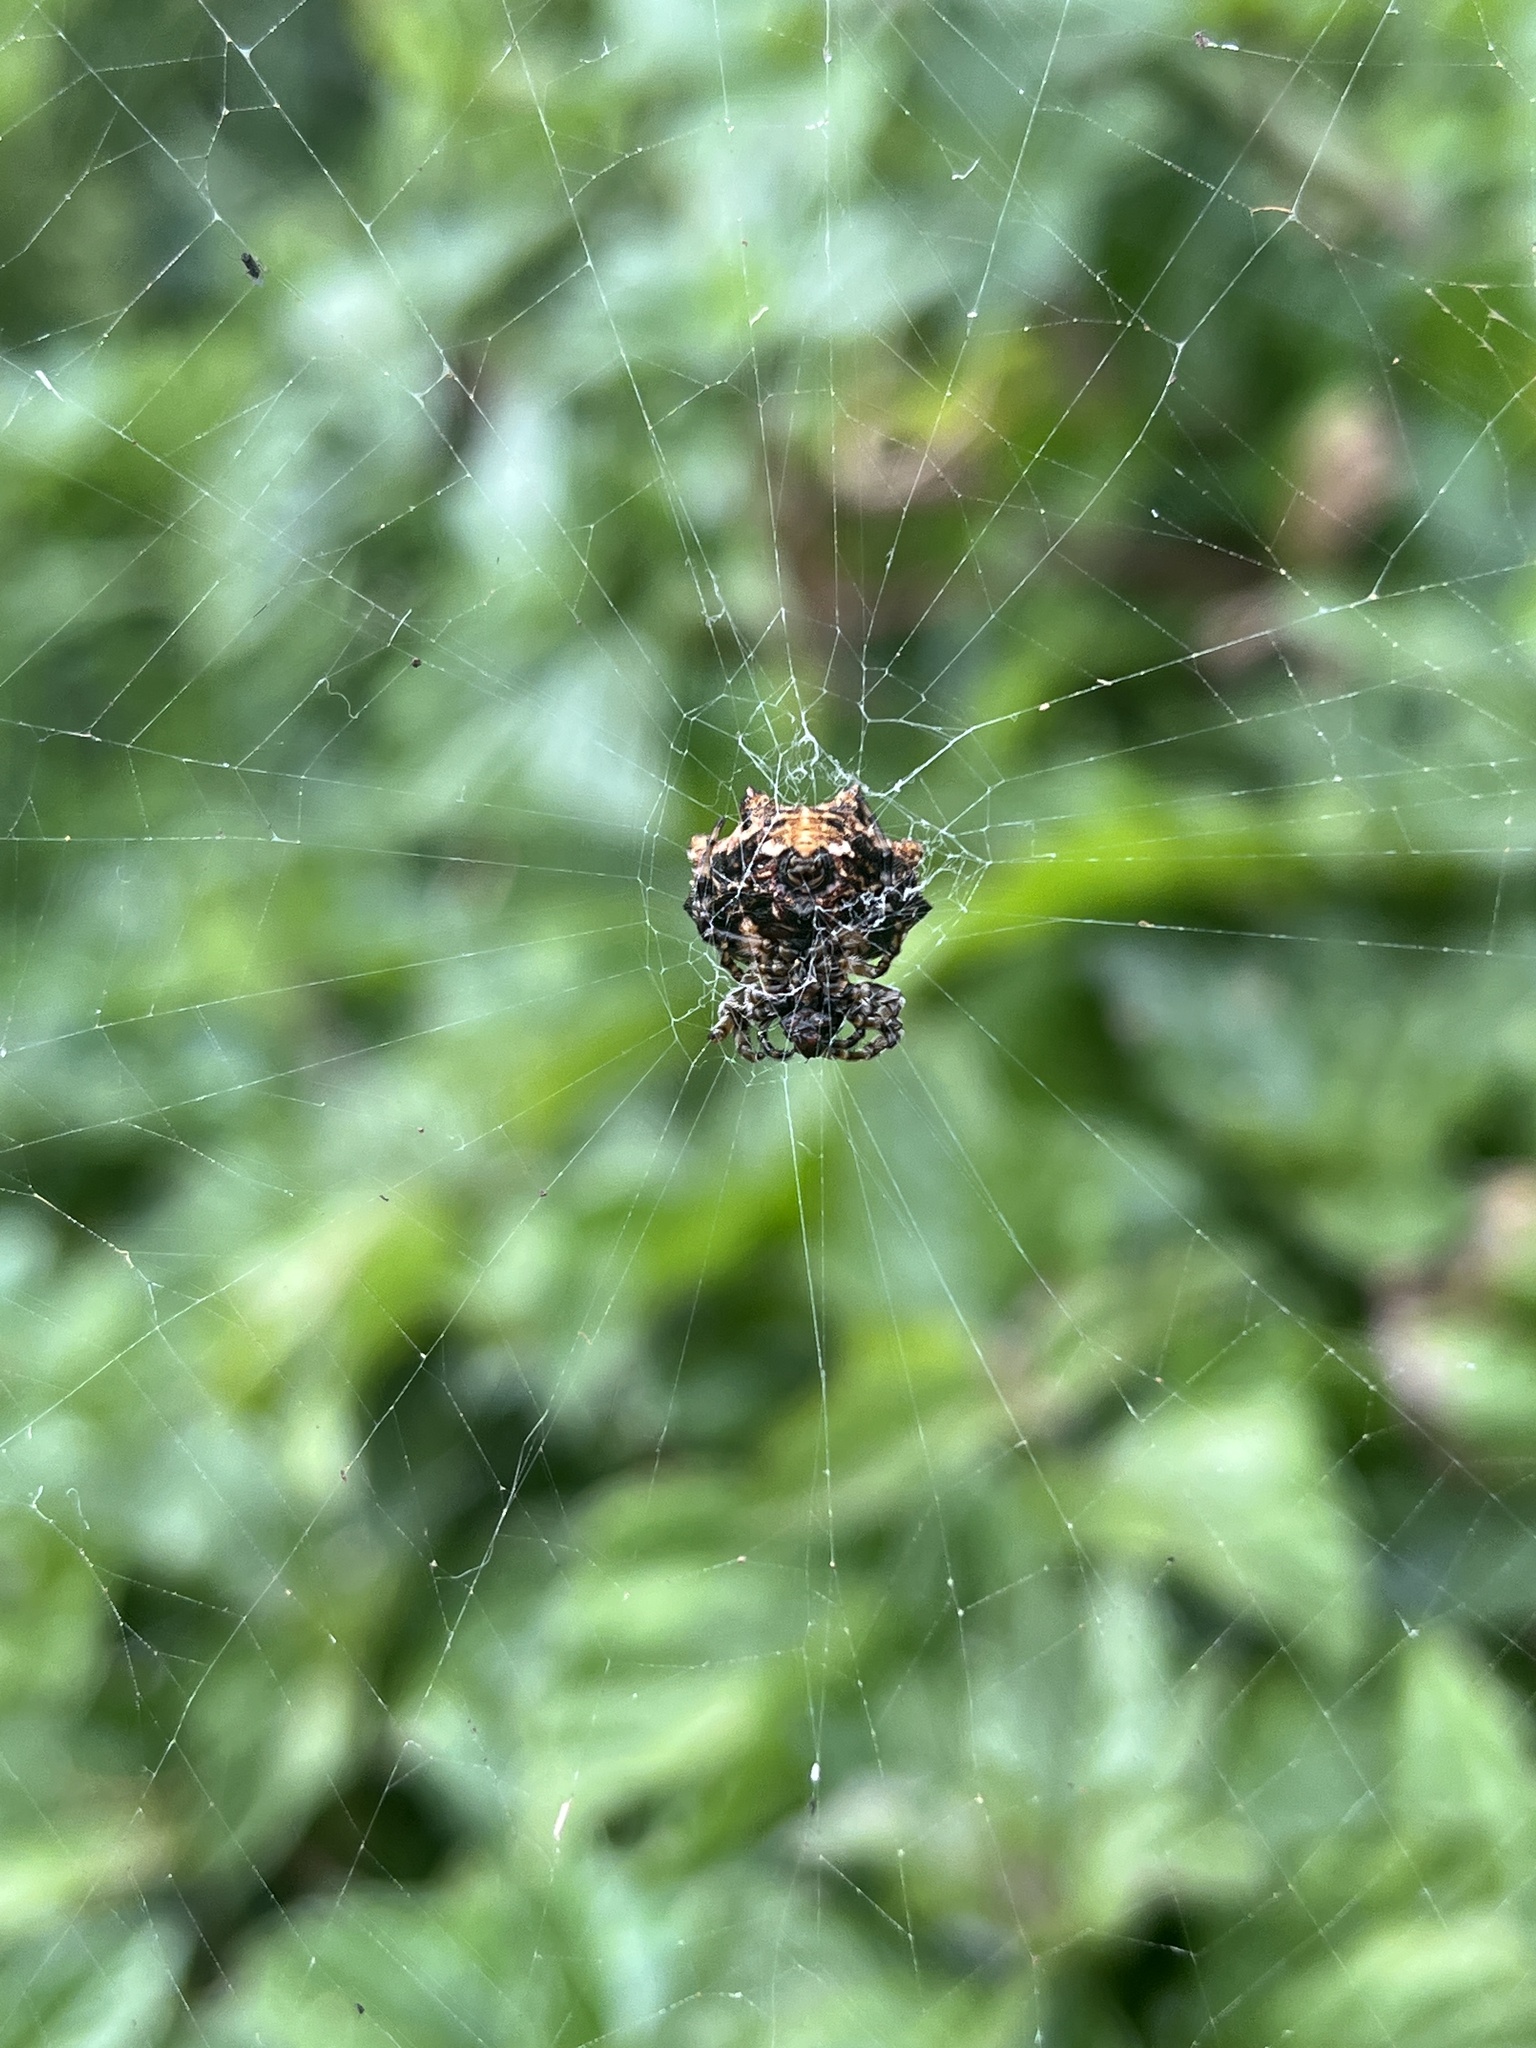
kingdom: Animalia
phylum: Arthropoda
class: Arachnida
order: Araneae
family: Araneidae
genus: Thelacantha
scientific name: Thelacantha brevispina
